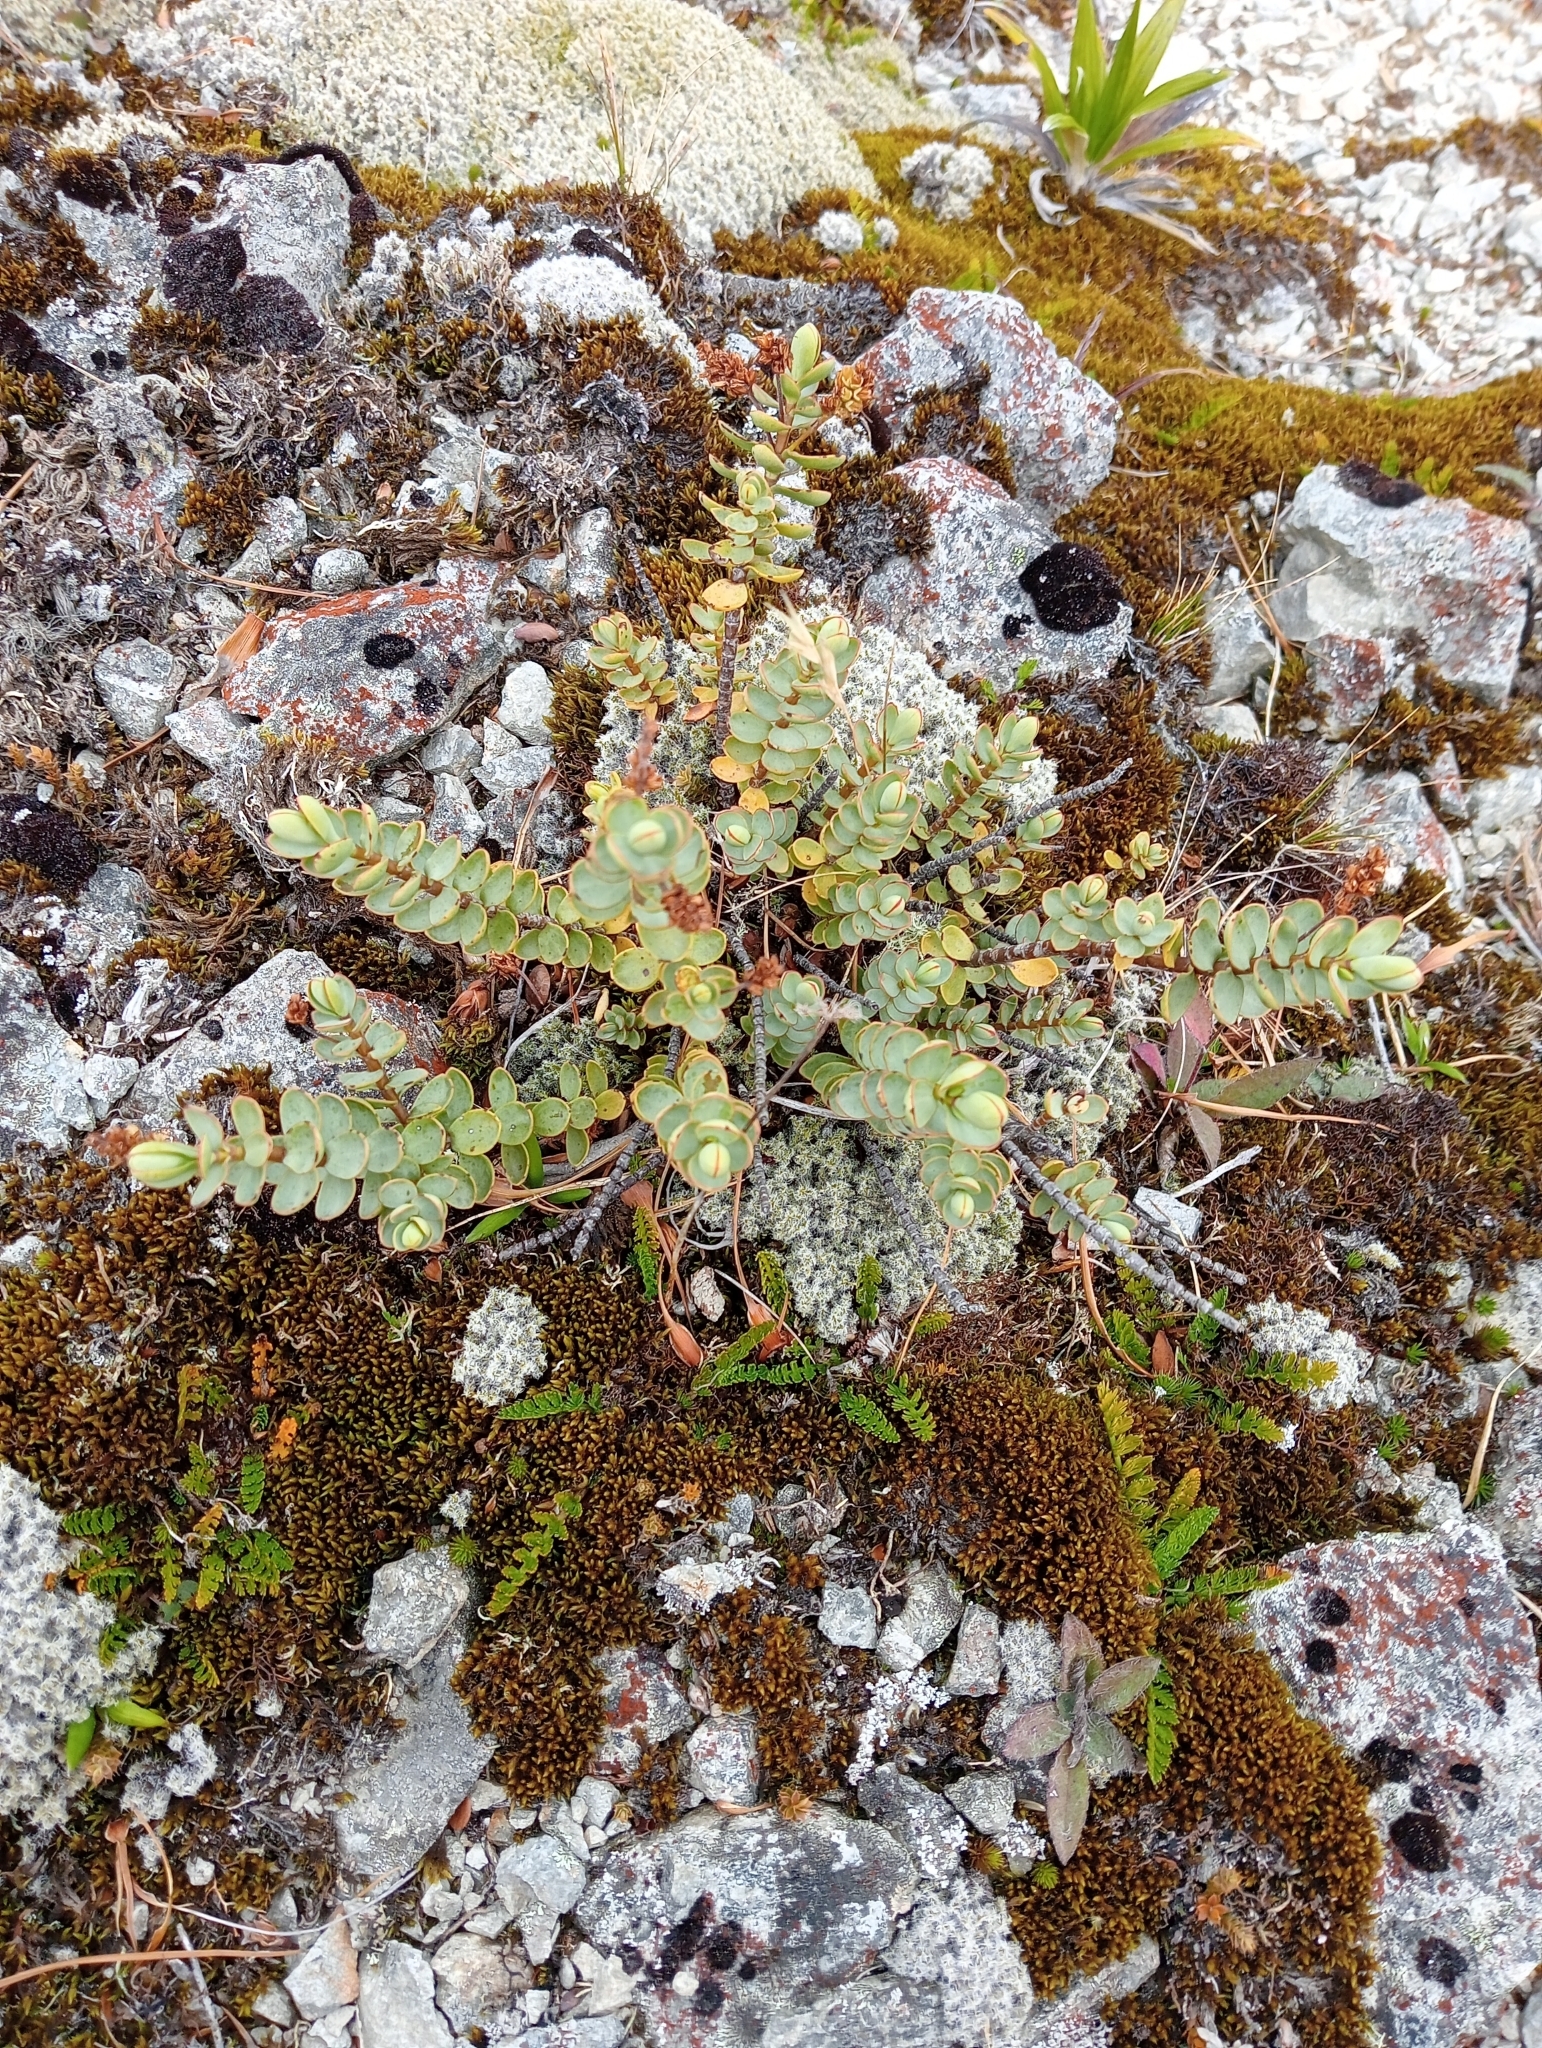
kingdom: Plantae
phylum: Tracheophyta
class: Magnoliopsida
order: Lamiales
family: Plantaginaceae
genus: Veronica
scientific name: Veronica pinguifolia
